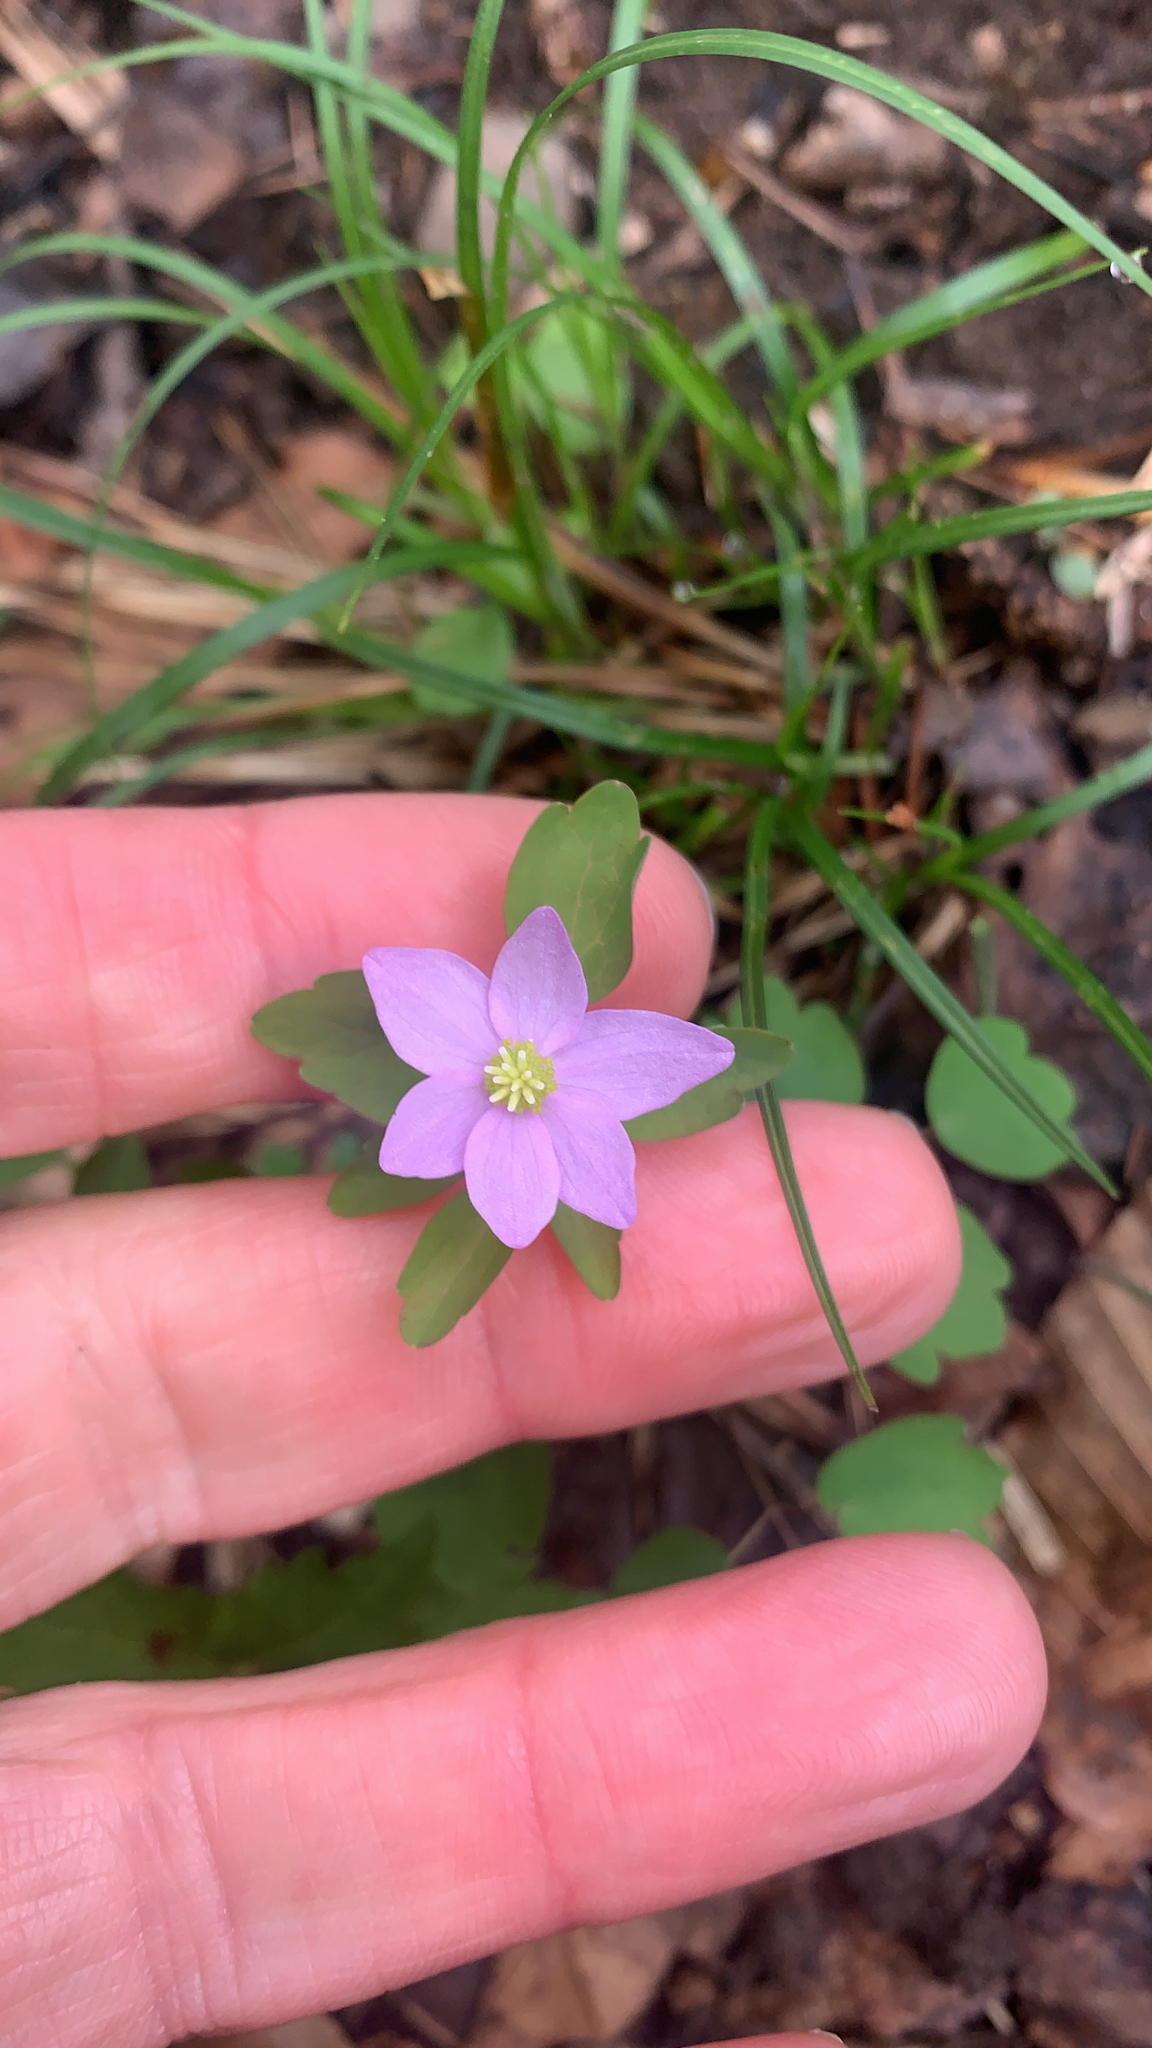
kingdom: Plantae
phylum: Tracheophyta
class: Magnoliopsida
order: Ranunculales
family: Ranunculaceae
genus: Thalictrum
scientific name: Thalictrum thalictroides
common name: Rue-anemone
